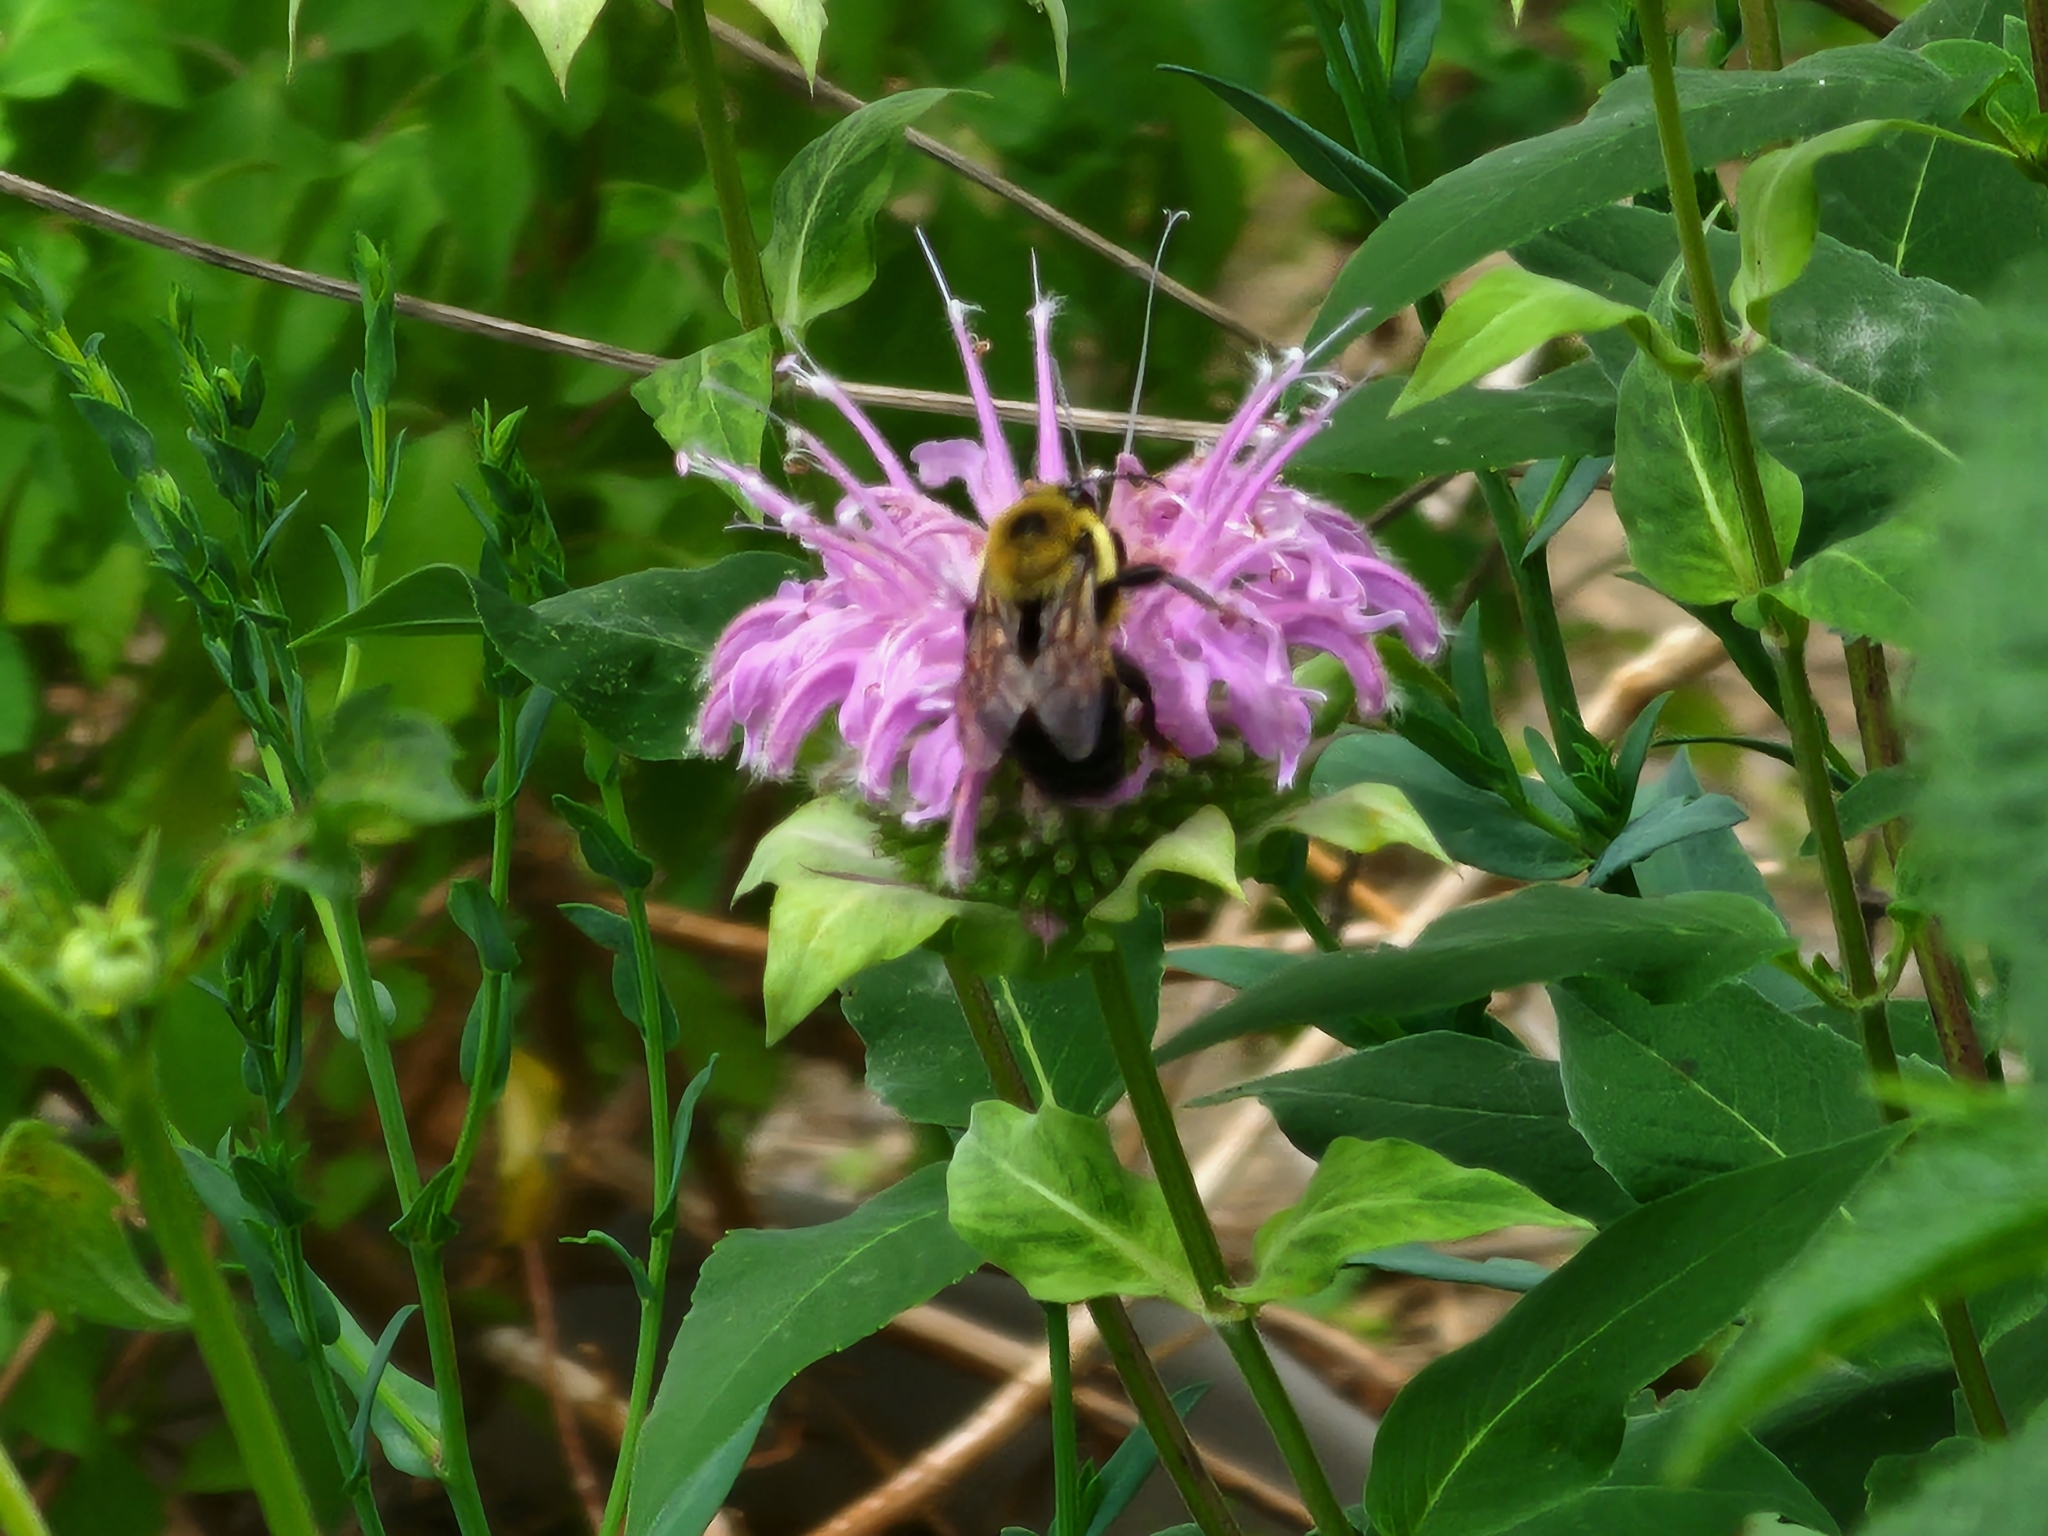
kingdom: Animalia
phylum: Arthropoda
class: Insecta
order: Hymenoptera
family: Apidae
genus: Bombus
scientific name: Bombus griseocollis
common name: Brown-belted bumble bee
